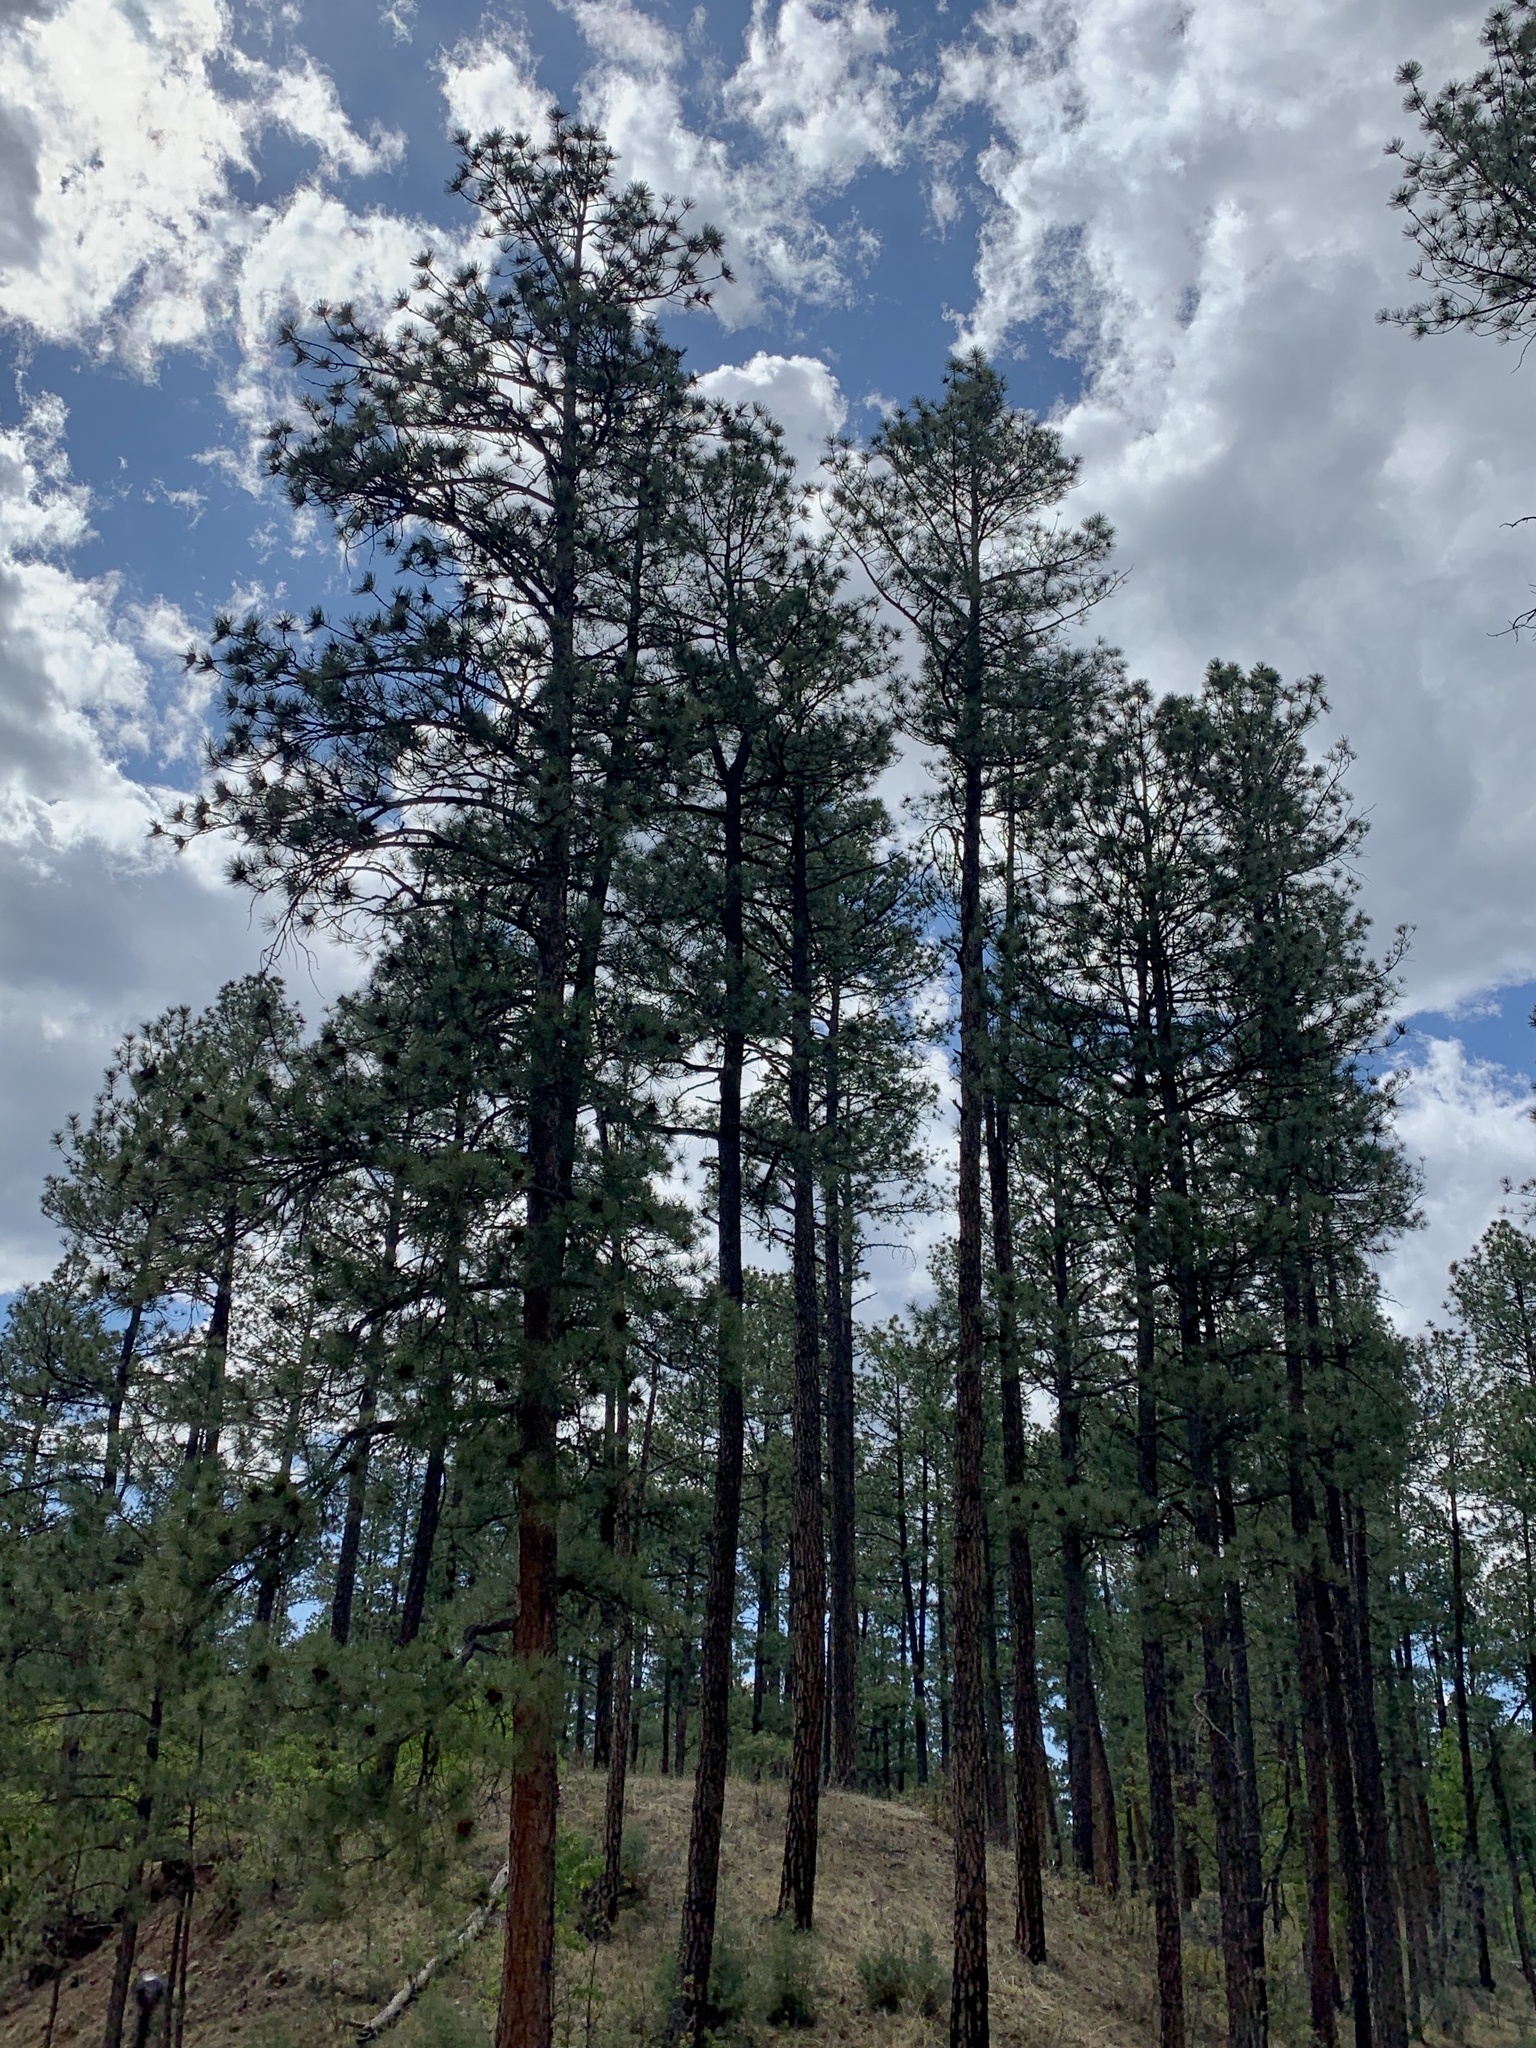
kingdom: Plantae
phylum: Tracheophyta
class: Pinopsida
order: Pinales
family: Pinaceae
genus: Pinus
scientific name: Pinus ponderosa
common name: Western yellow-pine
